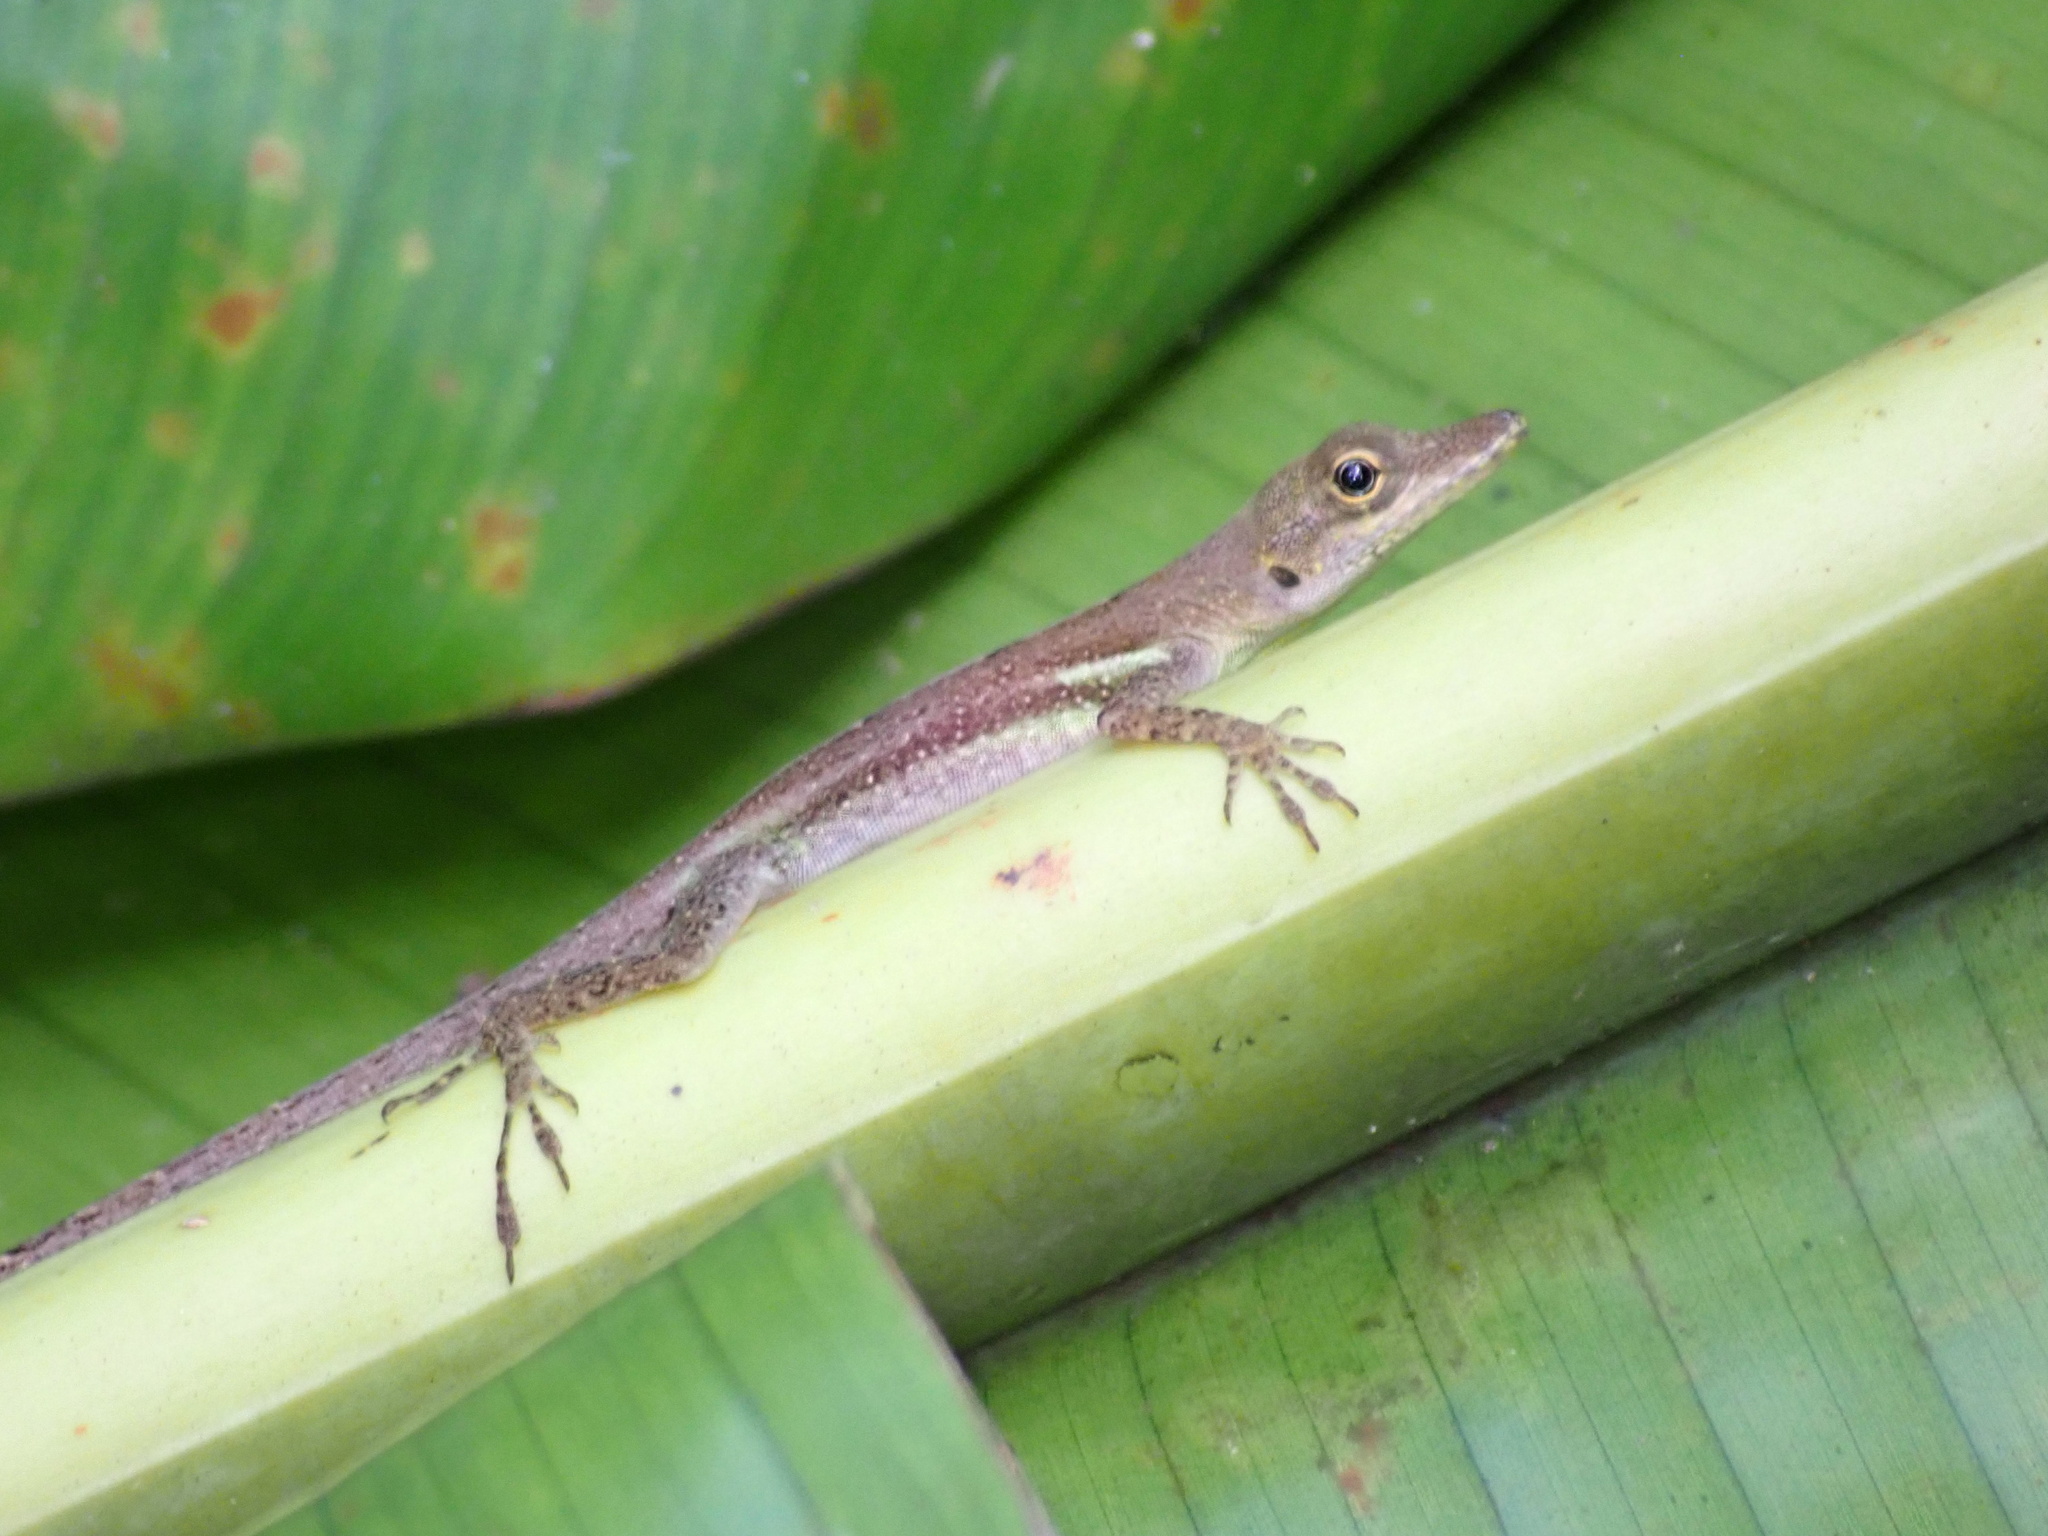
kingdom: Animalia
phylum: Chordata
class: Squamata
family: Dactyloidae
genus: Anolis
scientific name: Anolis luciae
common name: St. lucia anole
